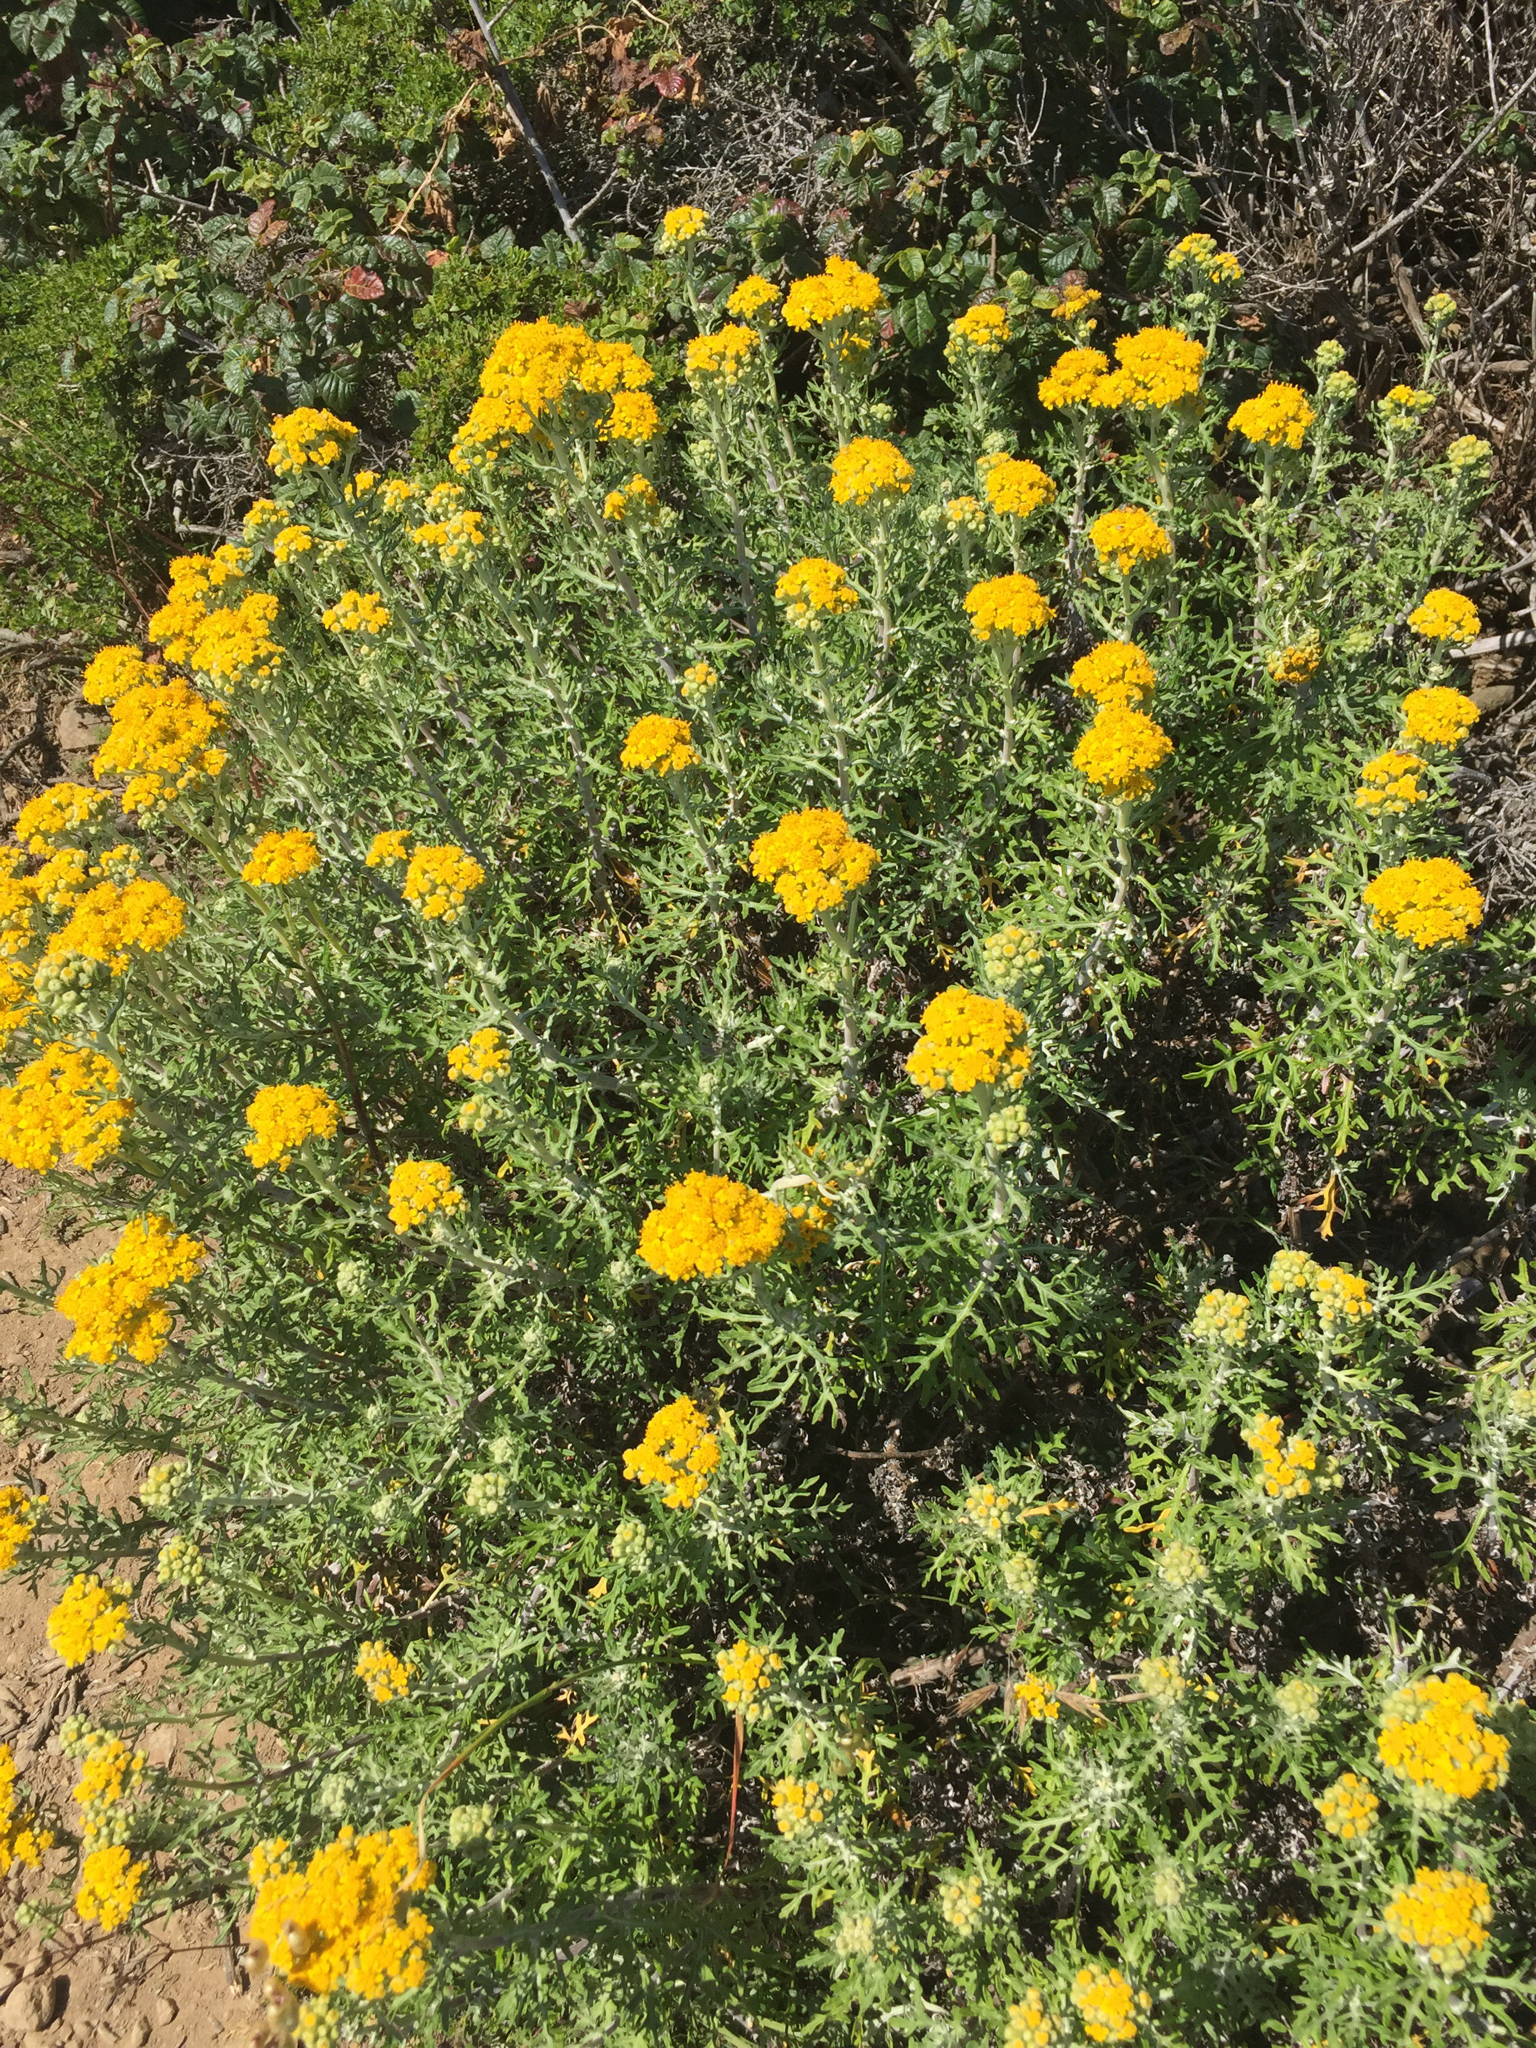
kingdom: Plantae
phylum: Tracheophyta
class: Magnoliopsida
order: Asterales
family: Asteraceae
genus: Eriophyllum
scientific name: Eriophyllum staechadifolium
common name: Lizardtail
